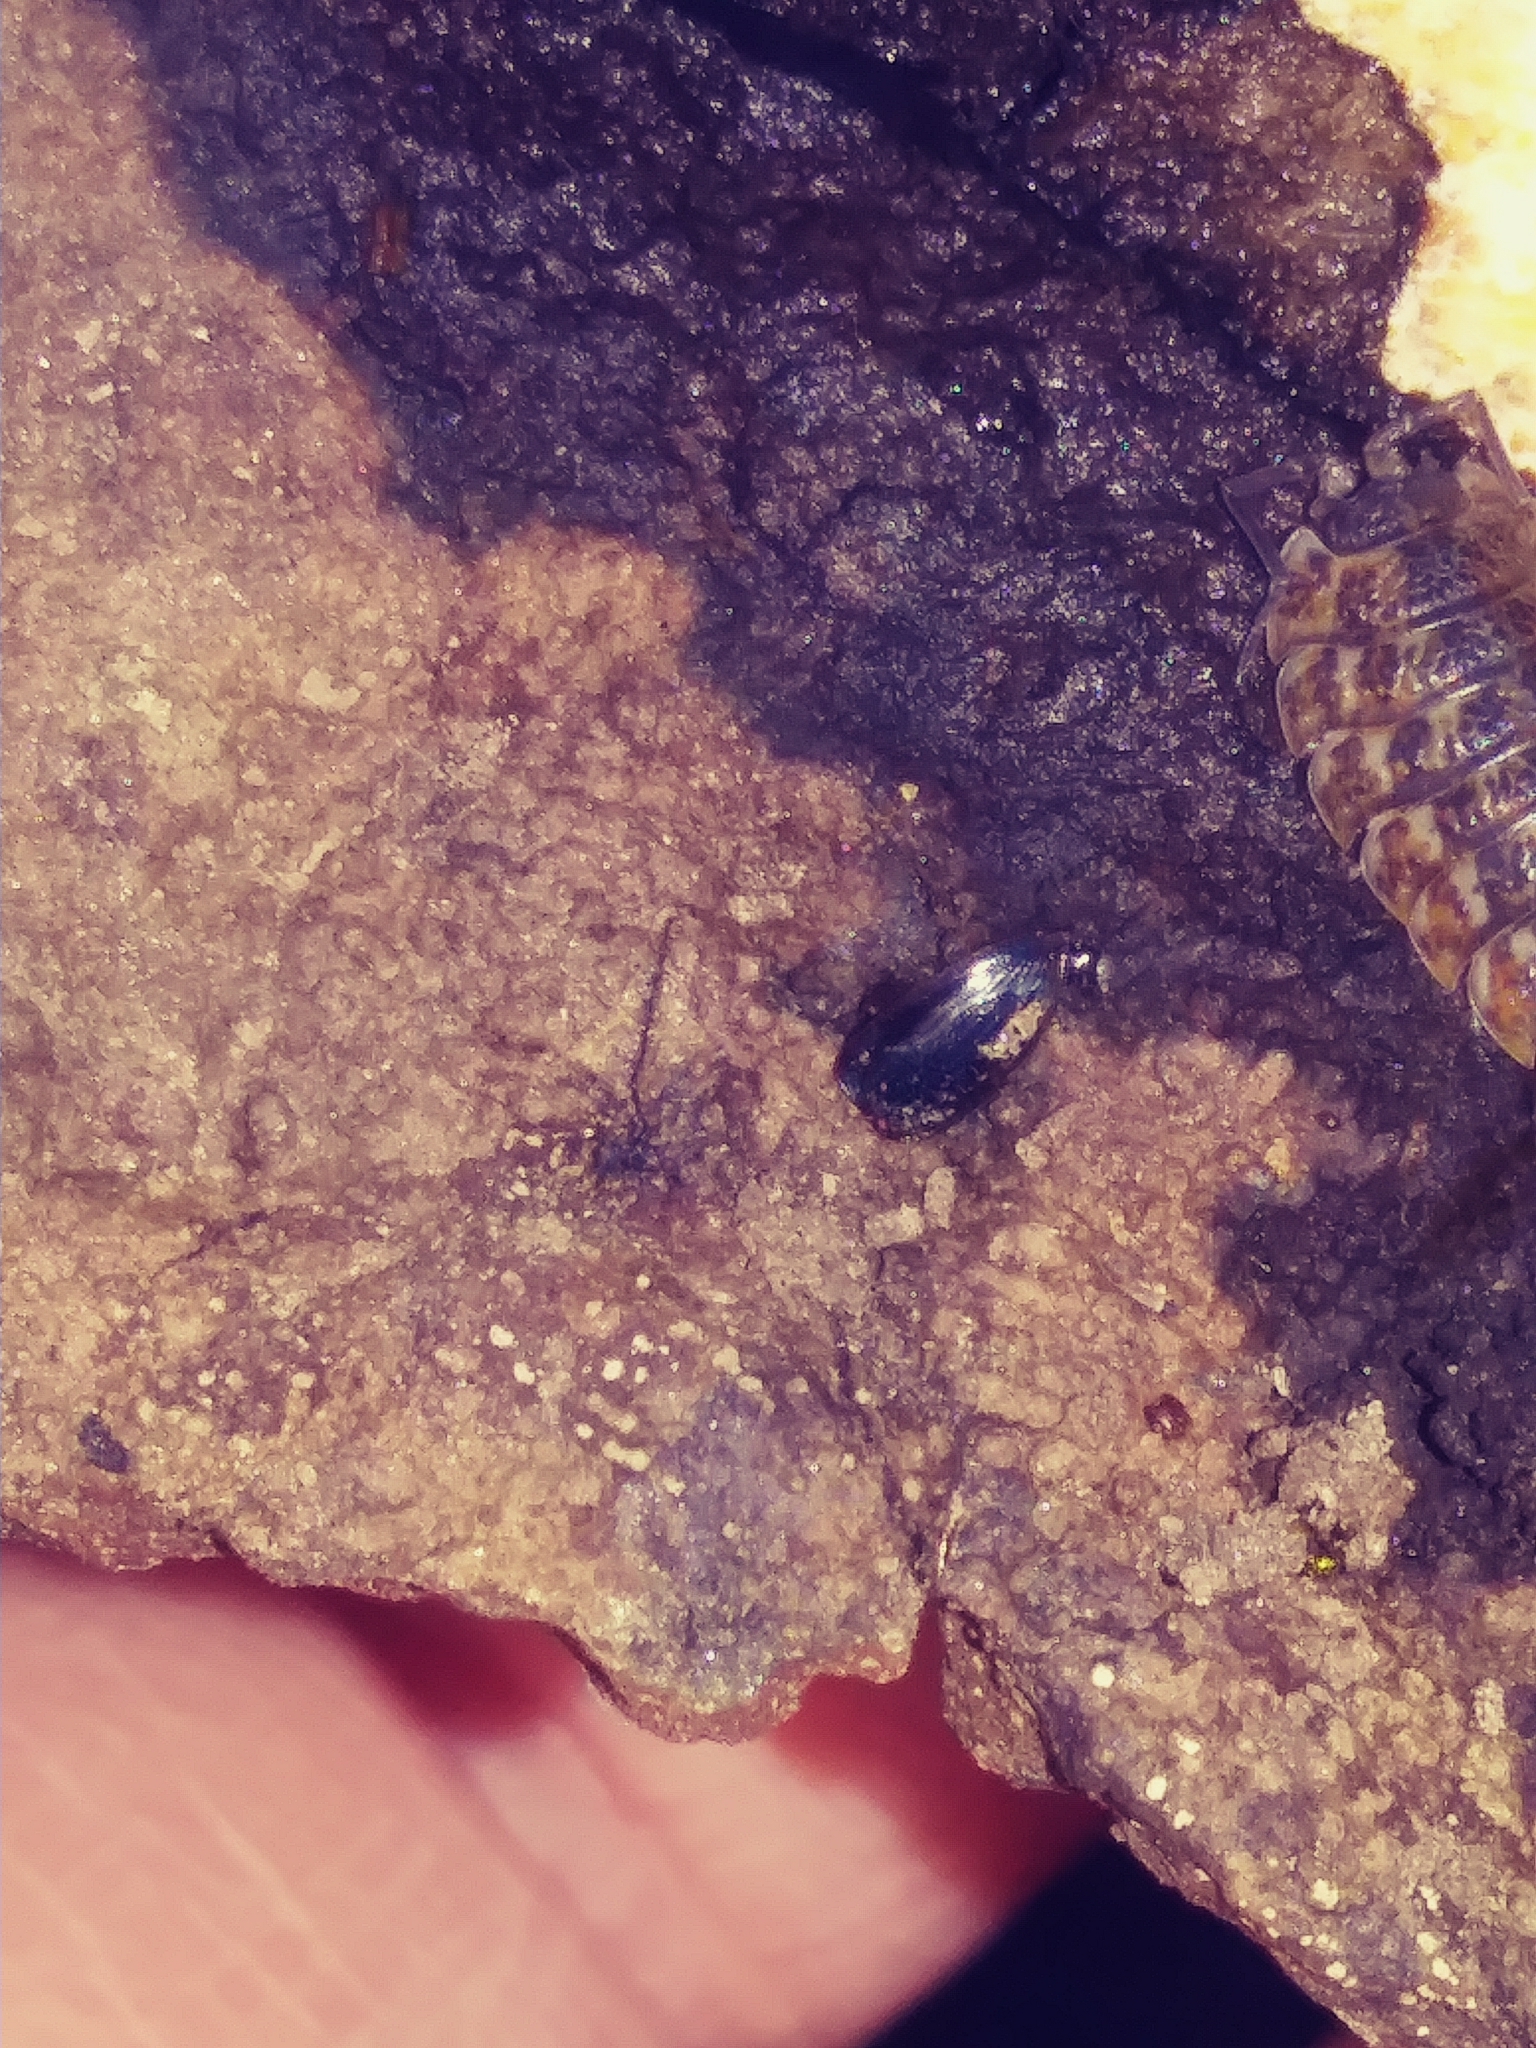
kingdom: Animalia
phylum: Arthropoda
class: Malacostraca
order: Isopoda
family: Trachelipodidae
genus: Trachelipus
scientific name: Trachelipus rathkii
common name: Isopod
